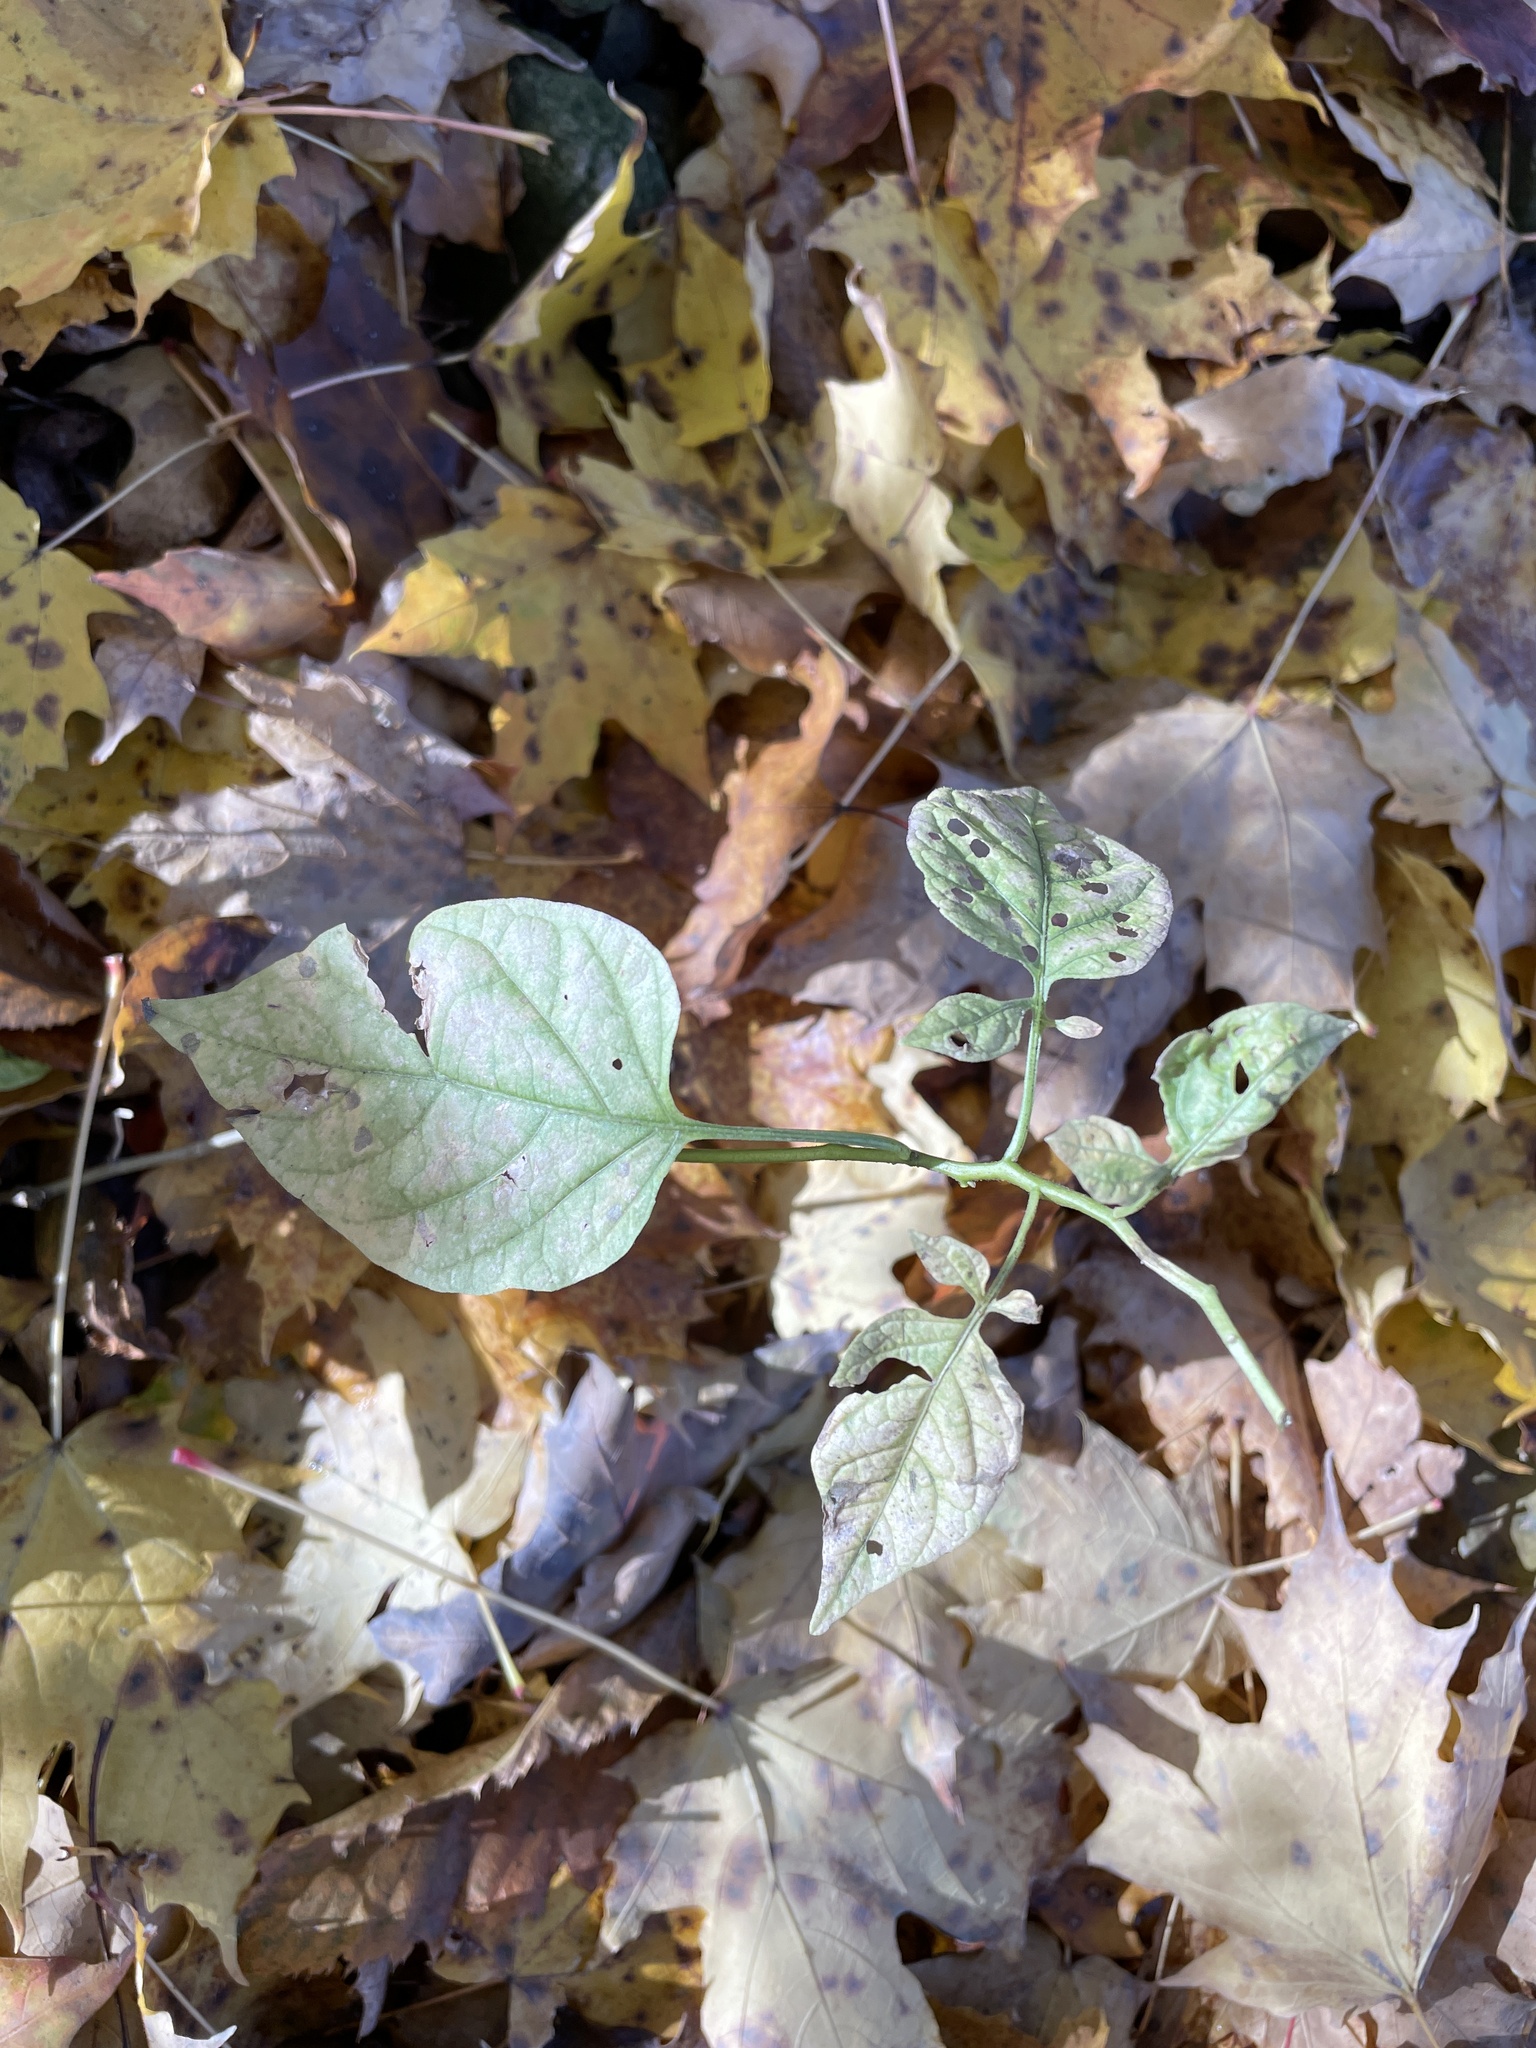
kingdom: Plantae
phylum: Tracheophyta
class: Magnoliopsida
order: Solanales
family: Solanaceae
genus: Solanum
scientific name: Solanum dulcamara
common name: Climbing nightshade
